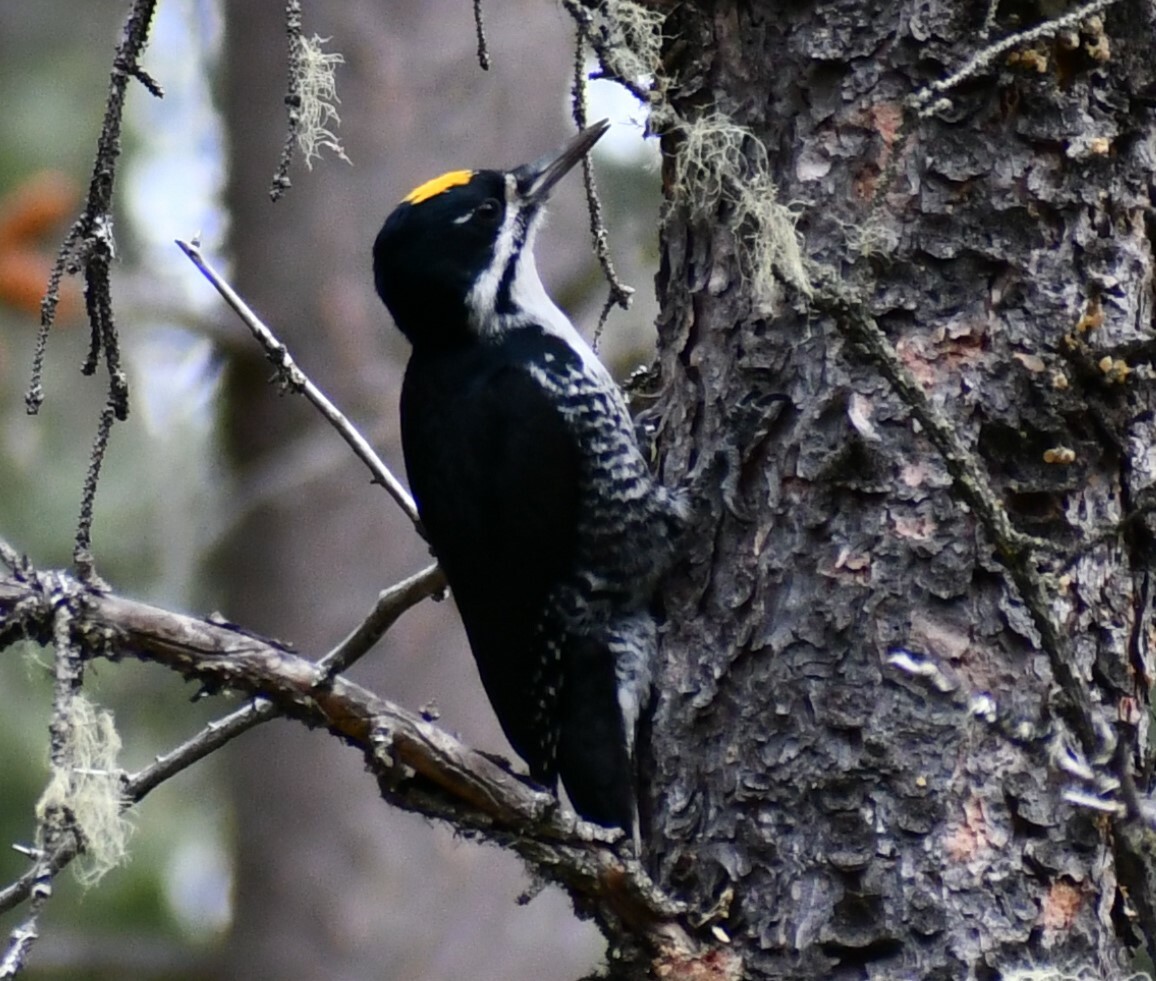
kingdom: Animalia
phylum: Chordata
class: Aves
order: Piciformes
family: Picidae
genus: Picoides
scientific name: Picoides arcticus
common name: Black-backed woodpecker
